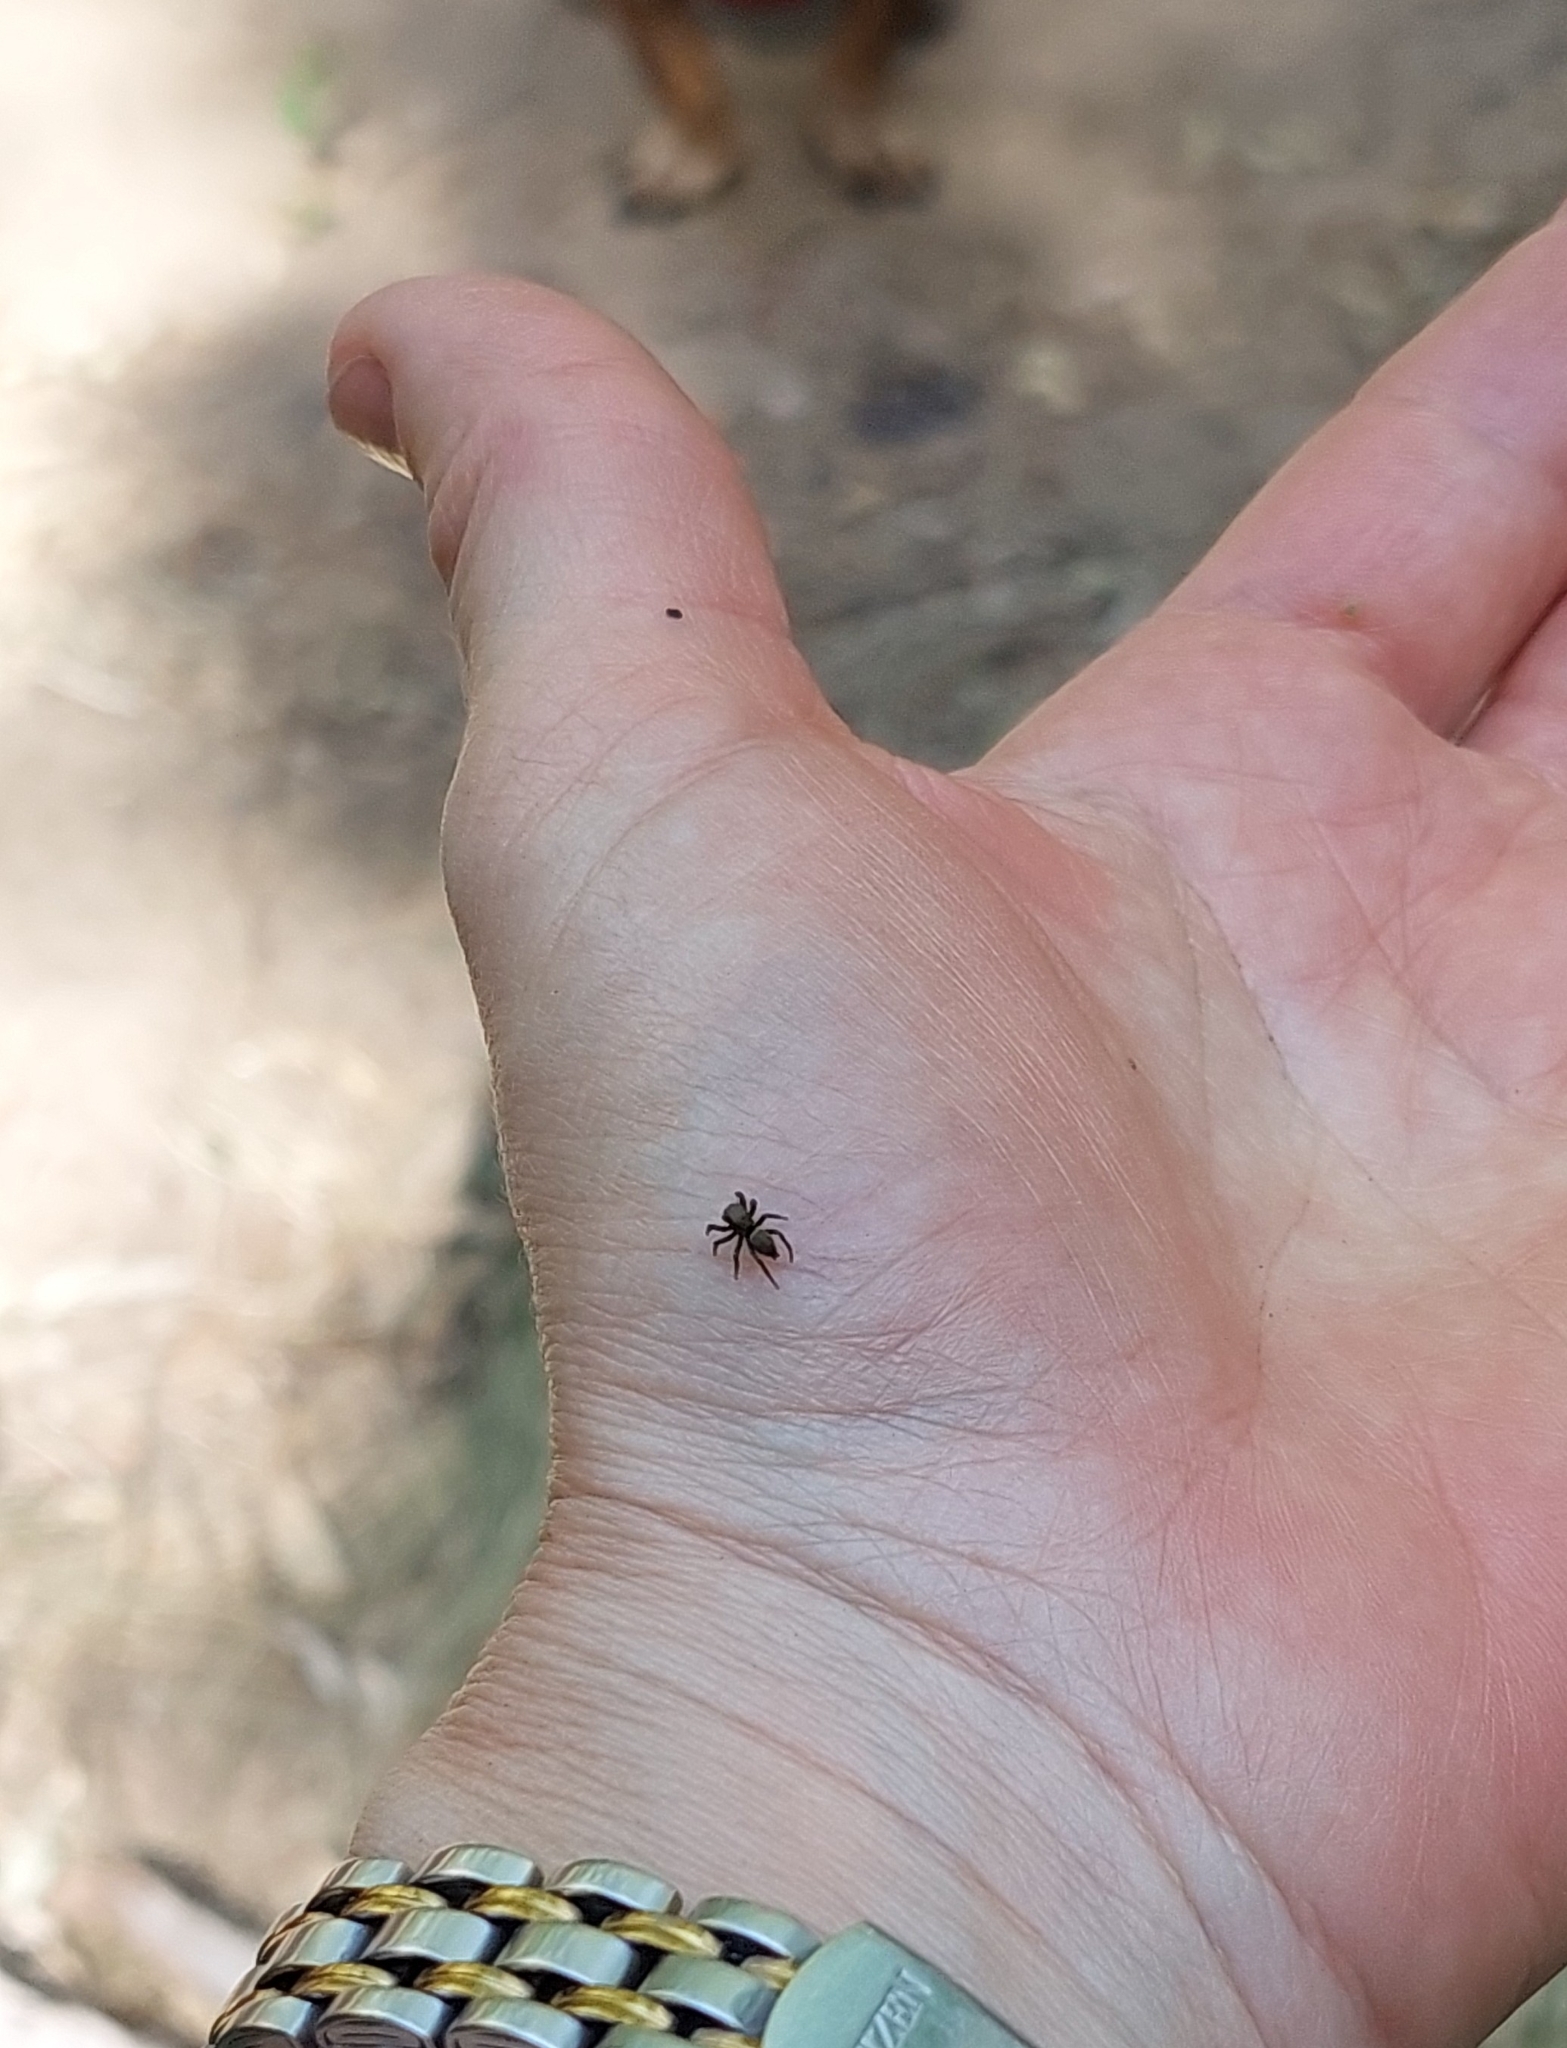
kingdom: Animalia
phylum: Arthropoda
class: Arachnida
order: Araneae
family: Salticidae
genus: Phiale
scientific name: Phiale roburifoliata
